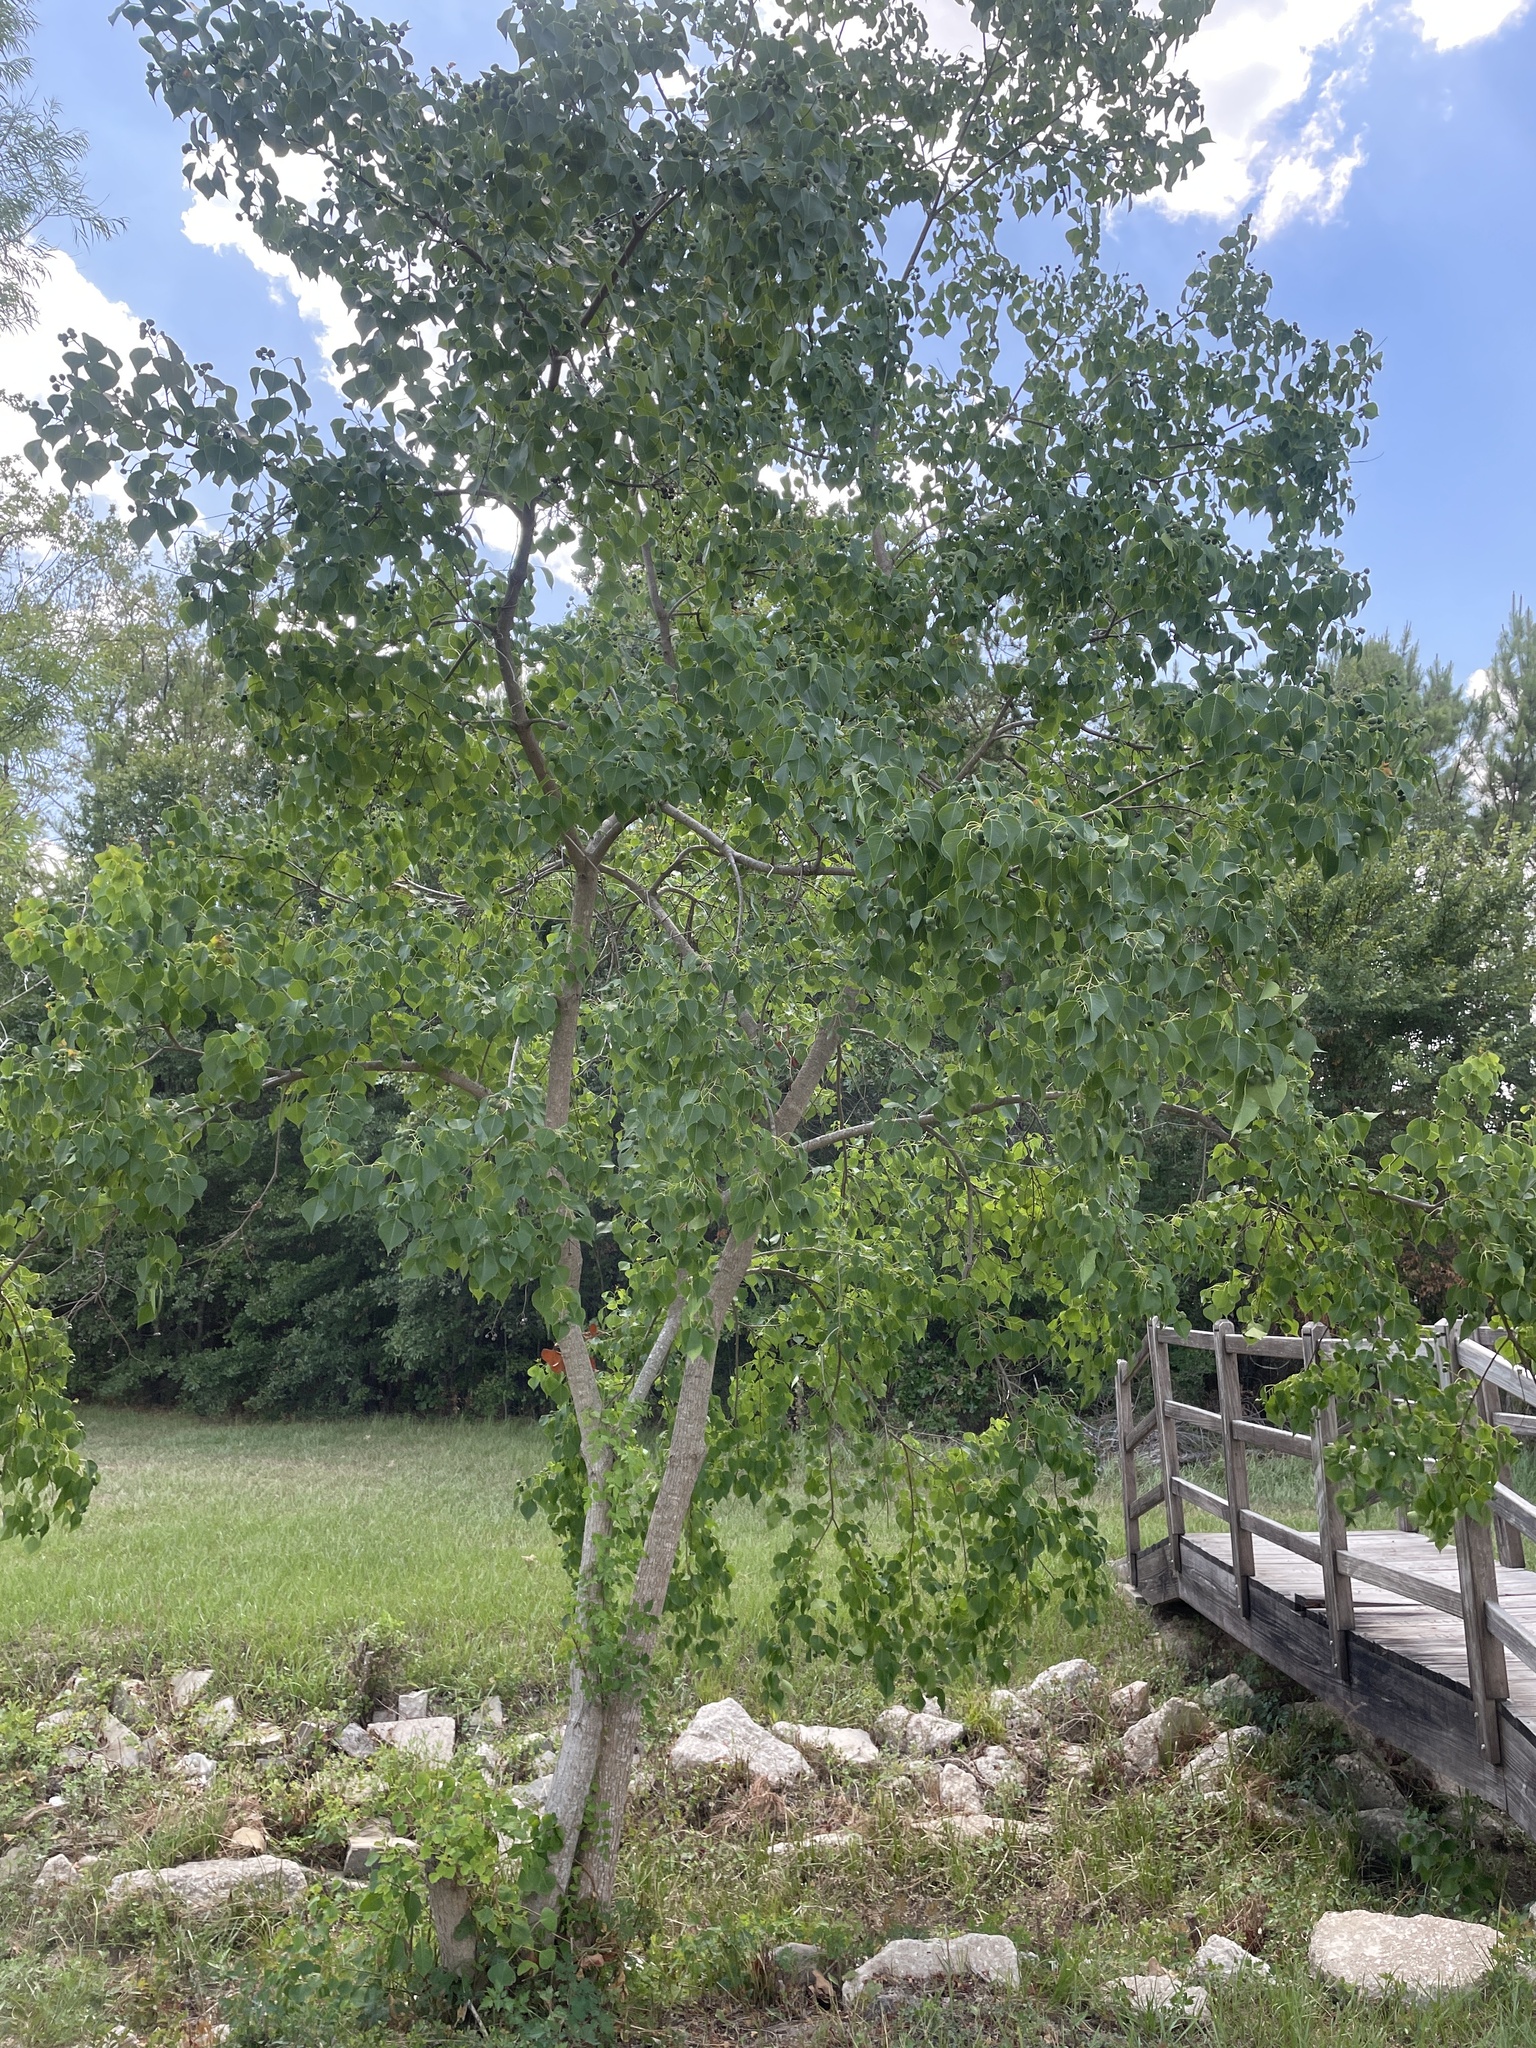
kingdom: Plantae
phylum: Tracheophyta
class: Magnoliopsida
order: Malpighiales
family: Euphorbiaceae
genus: Triadica
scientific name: Triadica sebifera
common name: Chinese tallow
